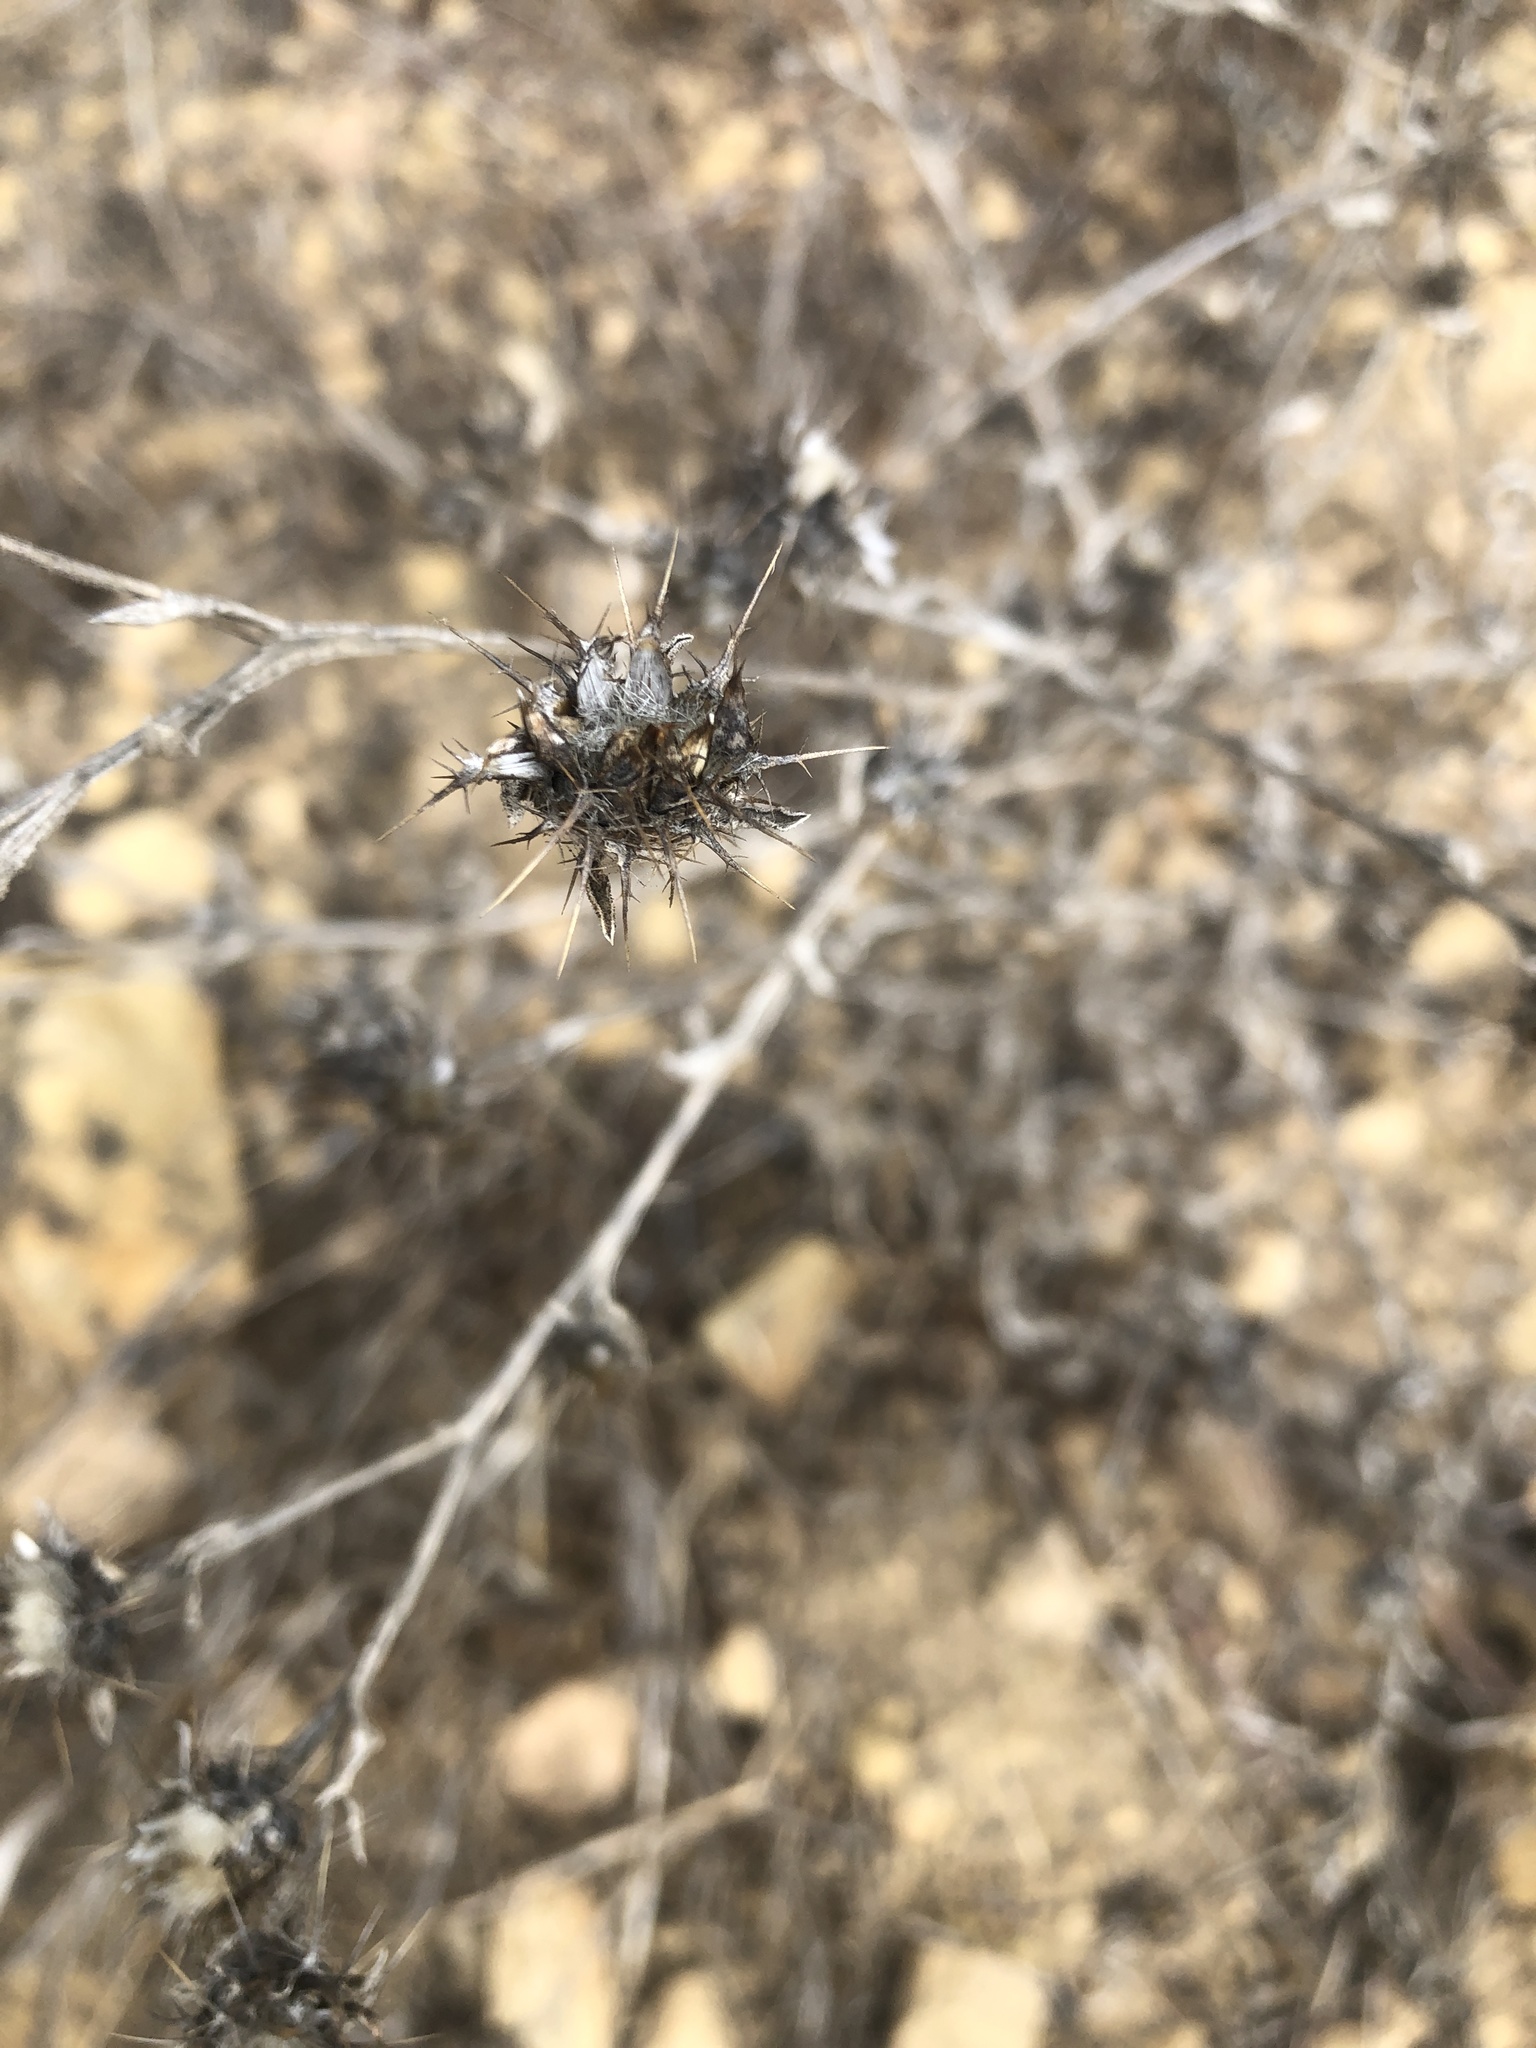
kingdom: Plantae
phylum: Tracheophyta
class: Magnoliopsida
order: Asterales
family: Asteraceae
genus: Centaurea
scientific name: Centaurea melitensis
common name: Maltese star-thistle
